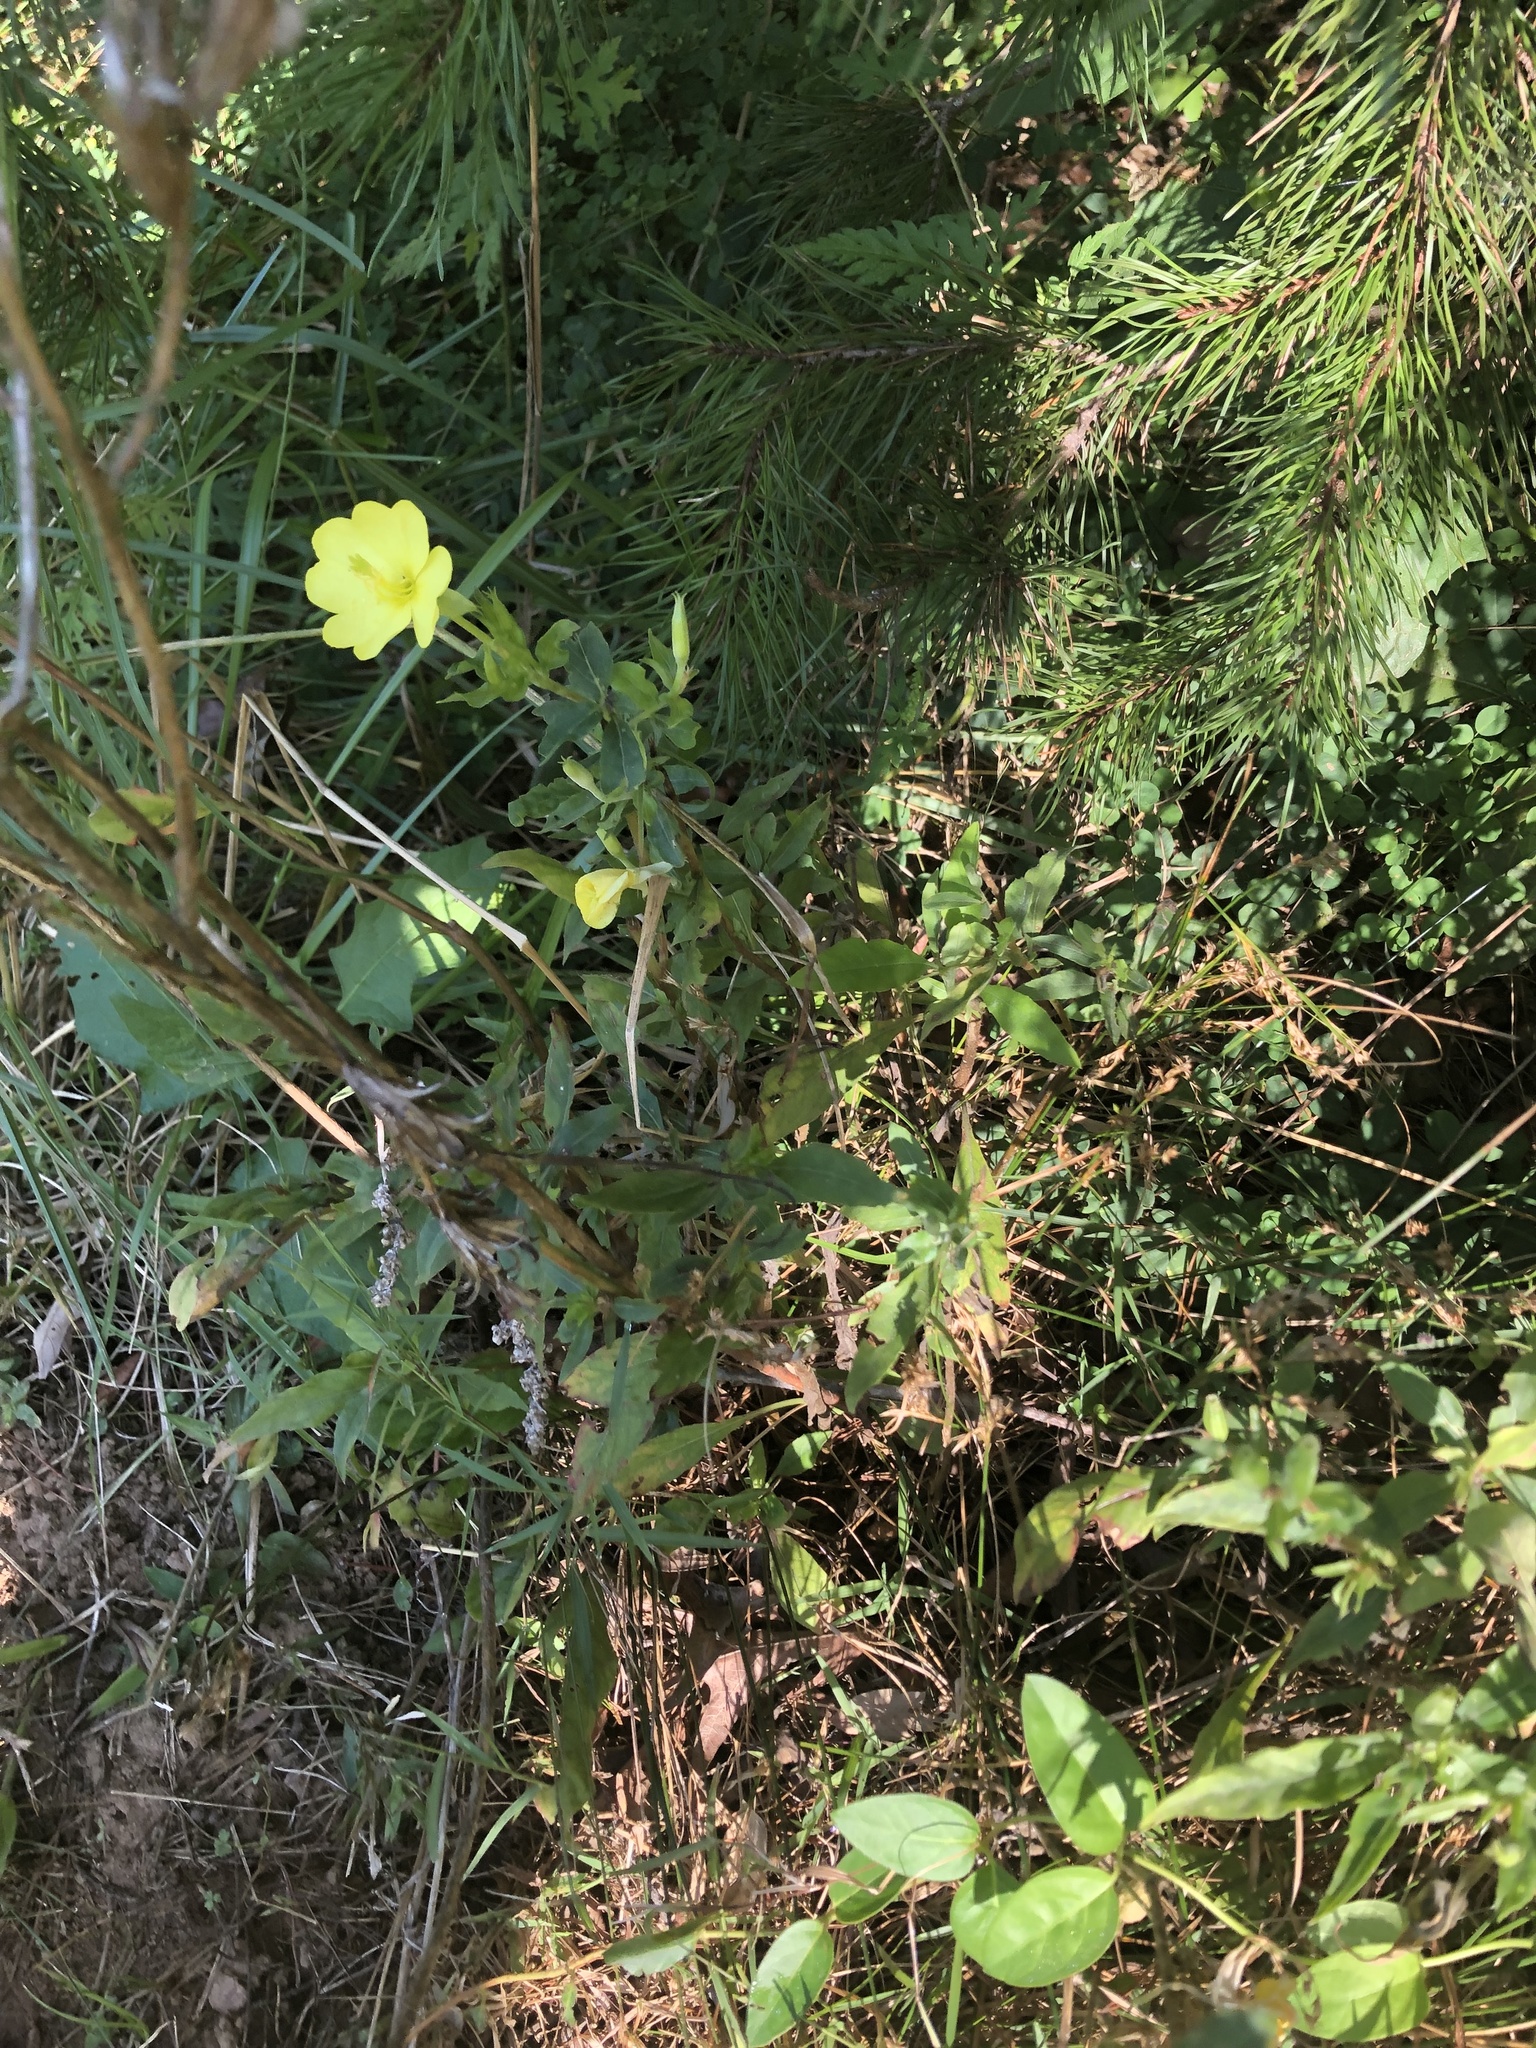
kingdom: Plantae
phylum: Tracheophyta
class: Magnoliopsida
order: Myrtales
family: Onagraceae
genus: Oenothera
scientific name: Oenothera biennis
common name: Common evening-primrose
